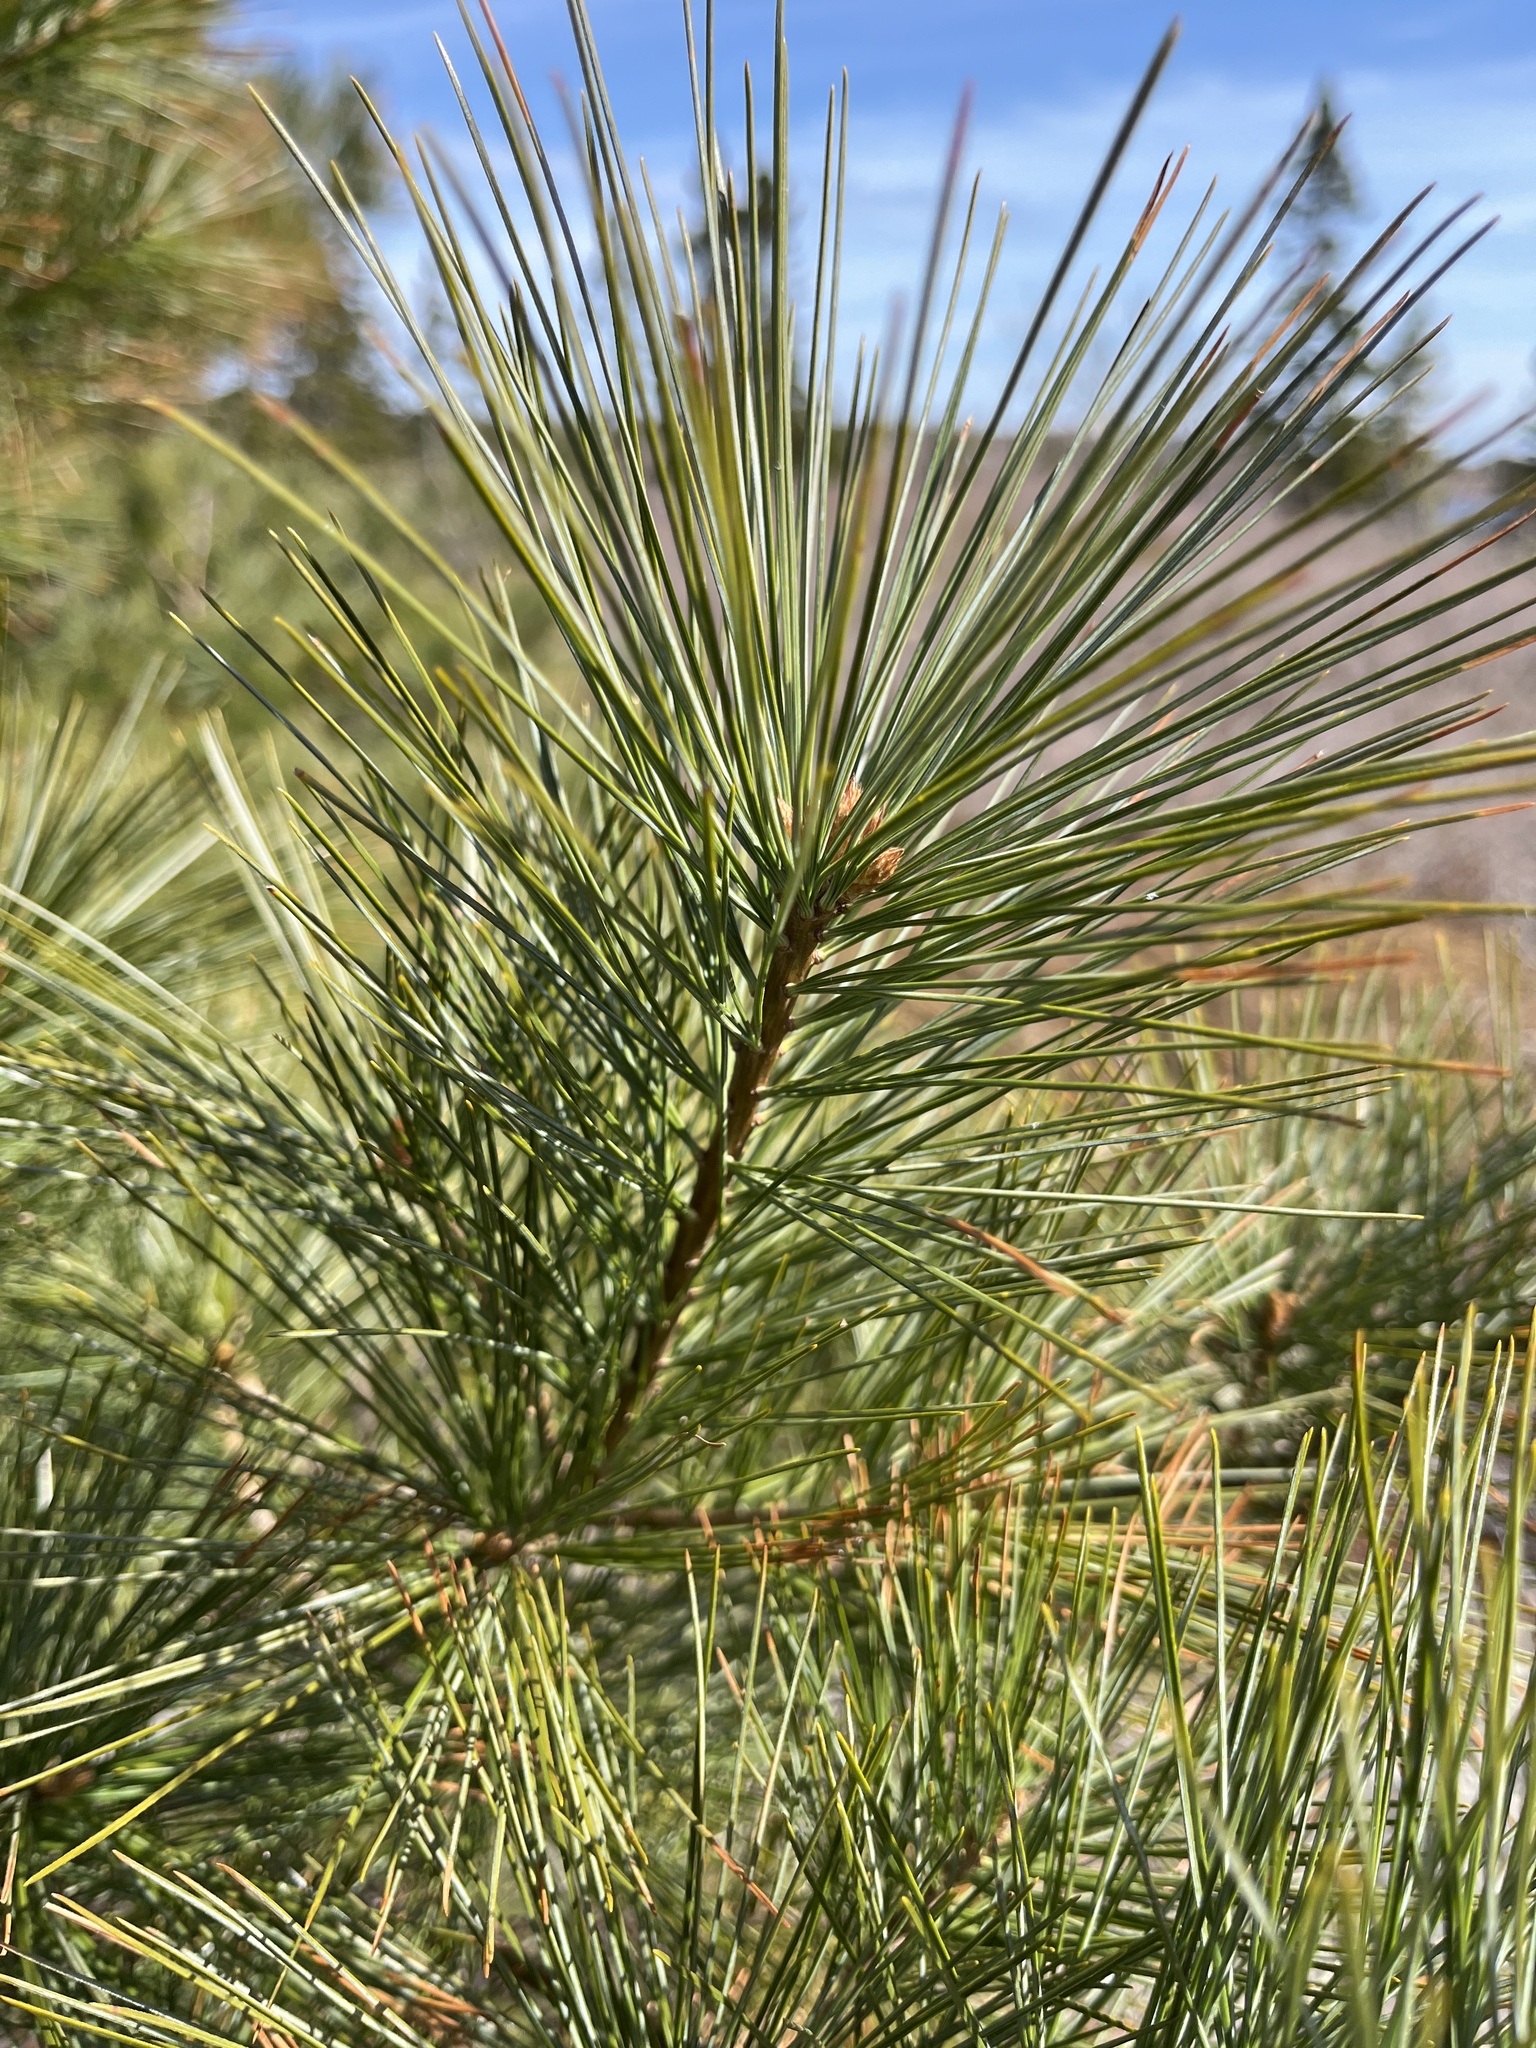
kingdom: Plantae
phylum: Tracheophyta
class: Pinopsida
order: Pinales
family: Pinaceae
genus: Pinus
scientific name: Pinus strobus
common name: Weymouth pine
